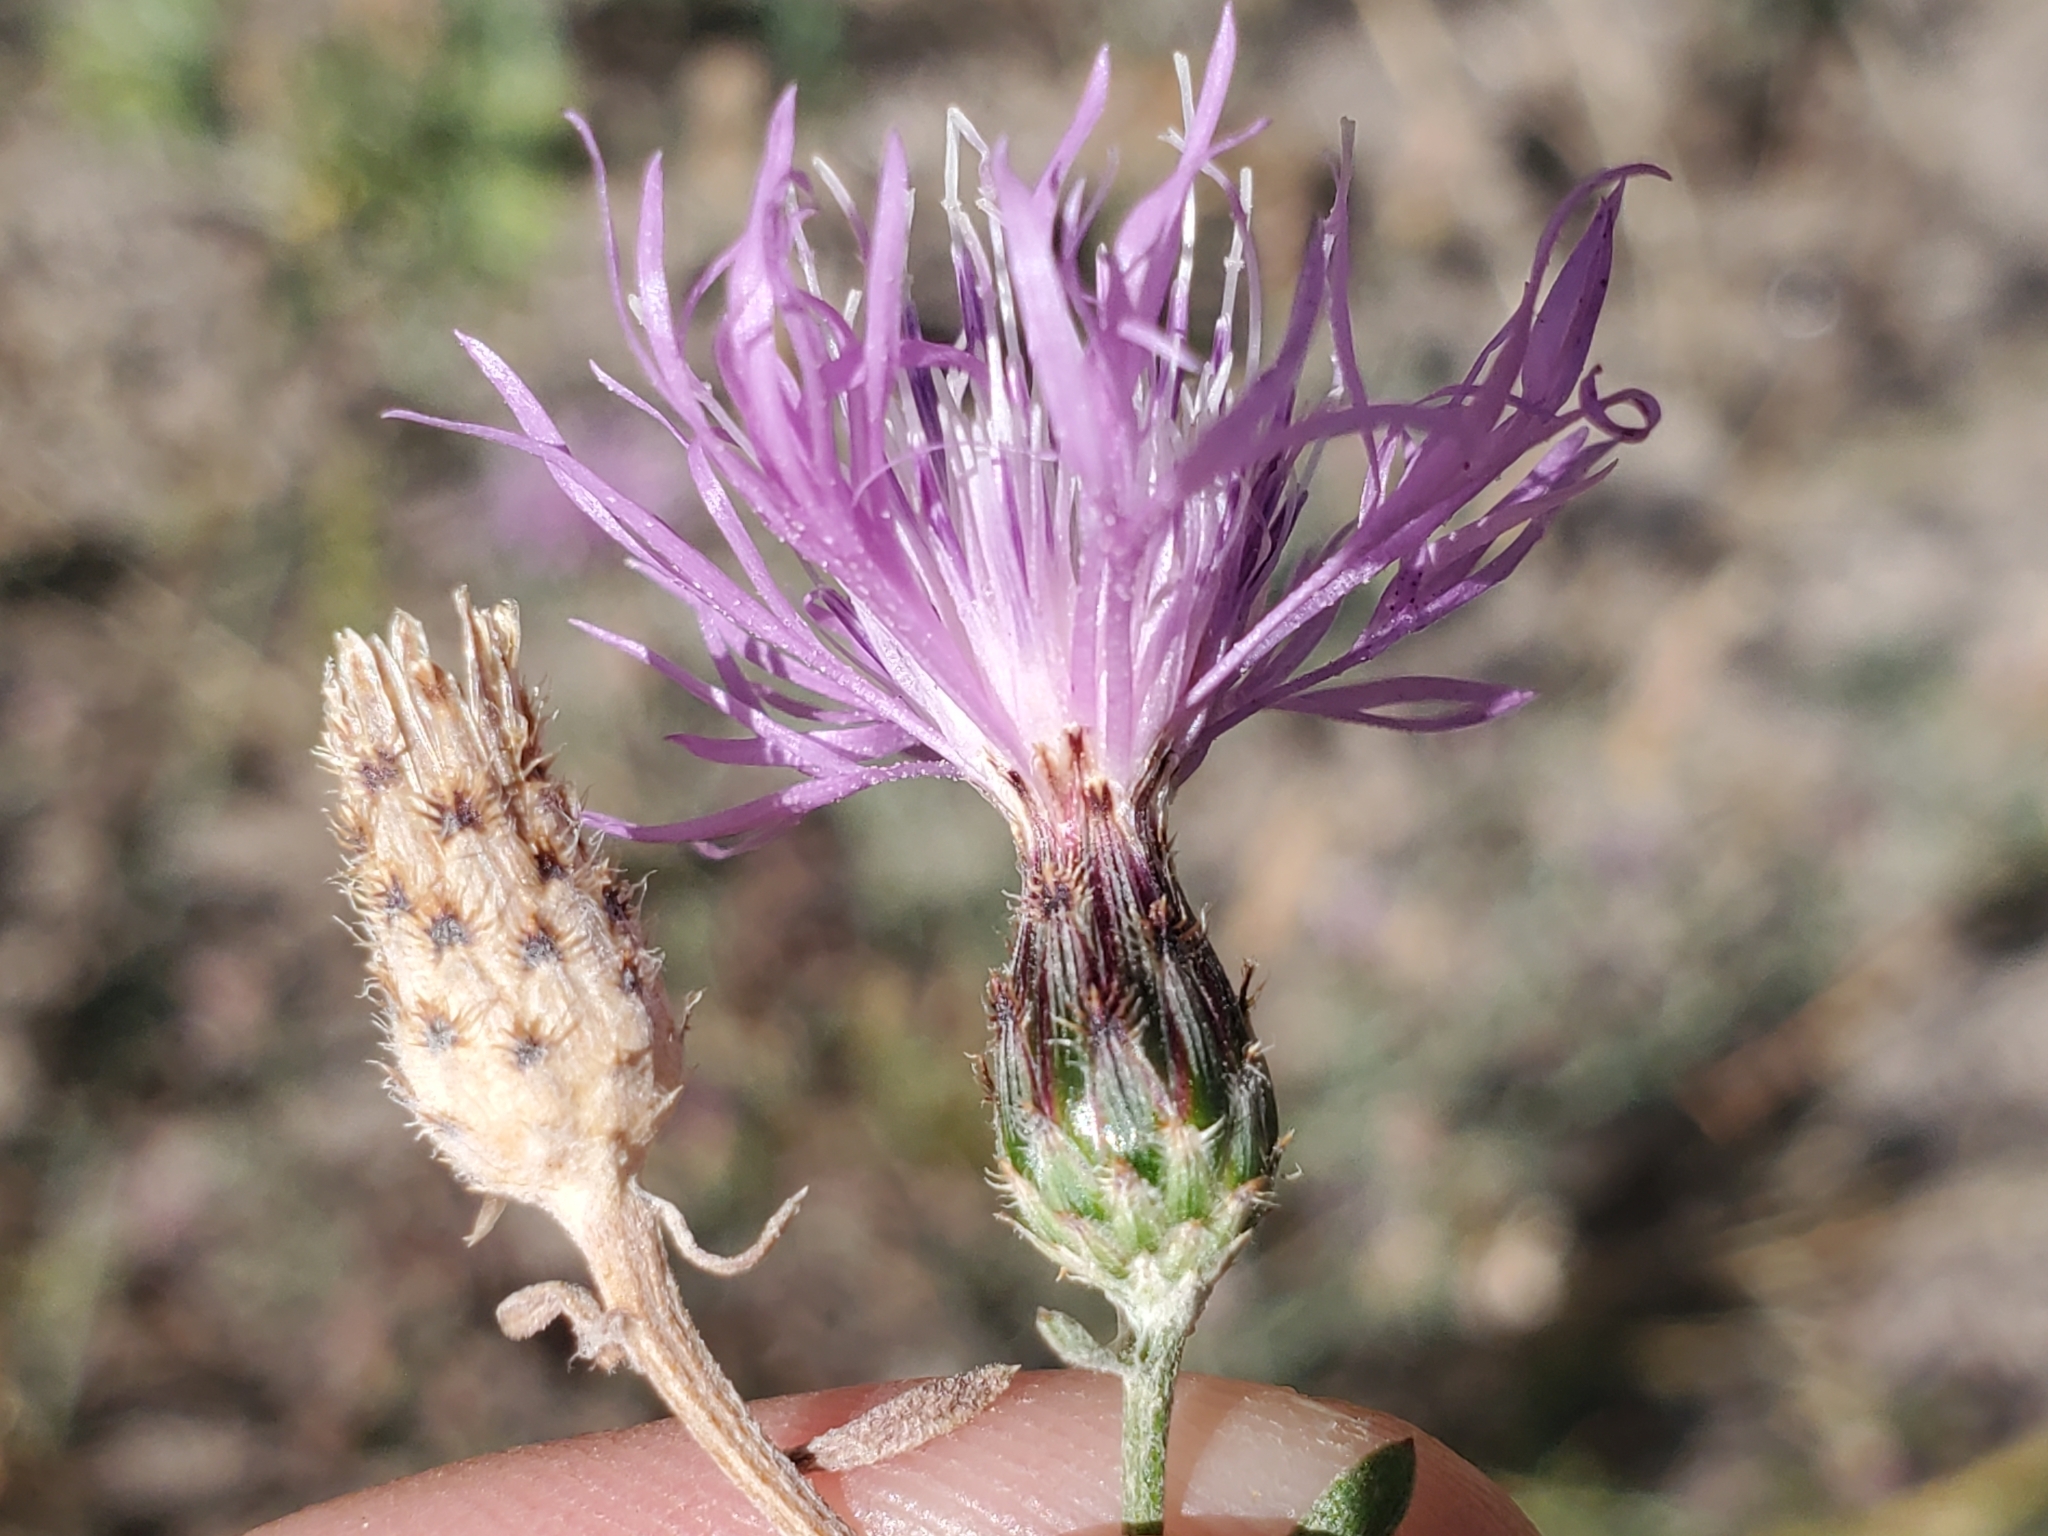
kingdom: Plantae
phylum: Tracheophyta
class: Magnoliopsida
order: Asterales
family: Asteraceae
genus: Centaurea
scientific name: Centaurea stoebe
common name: Spotted knapweed
